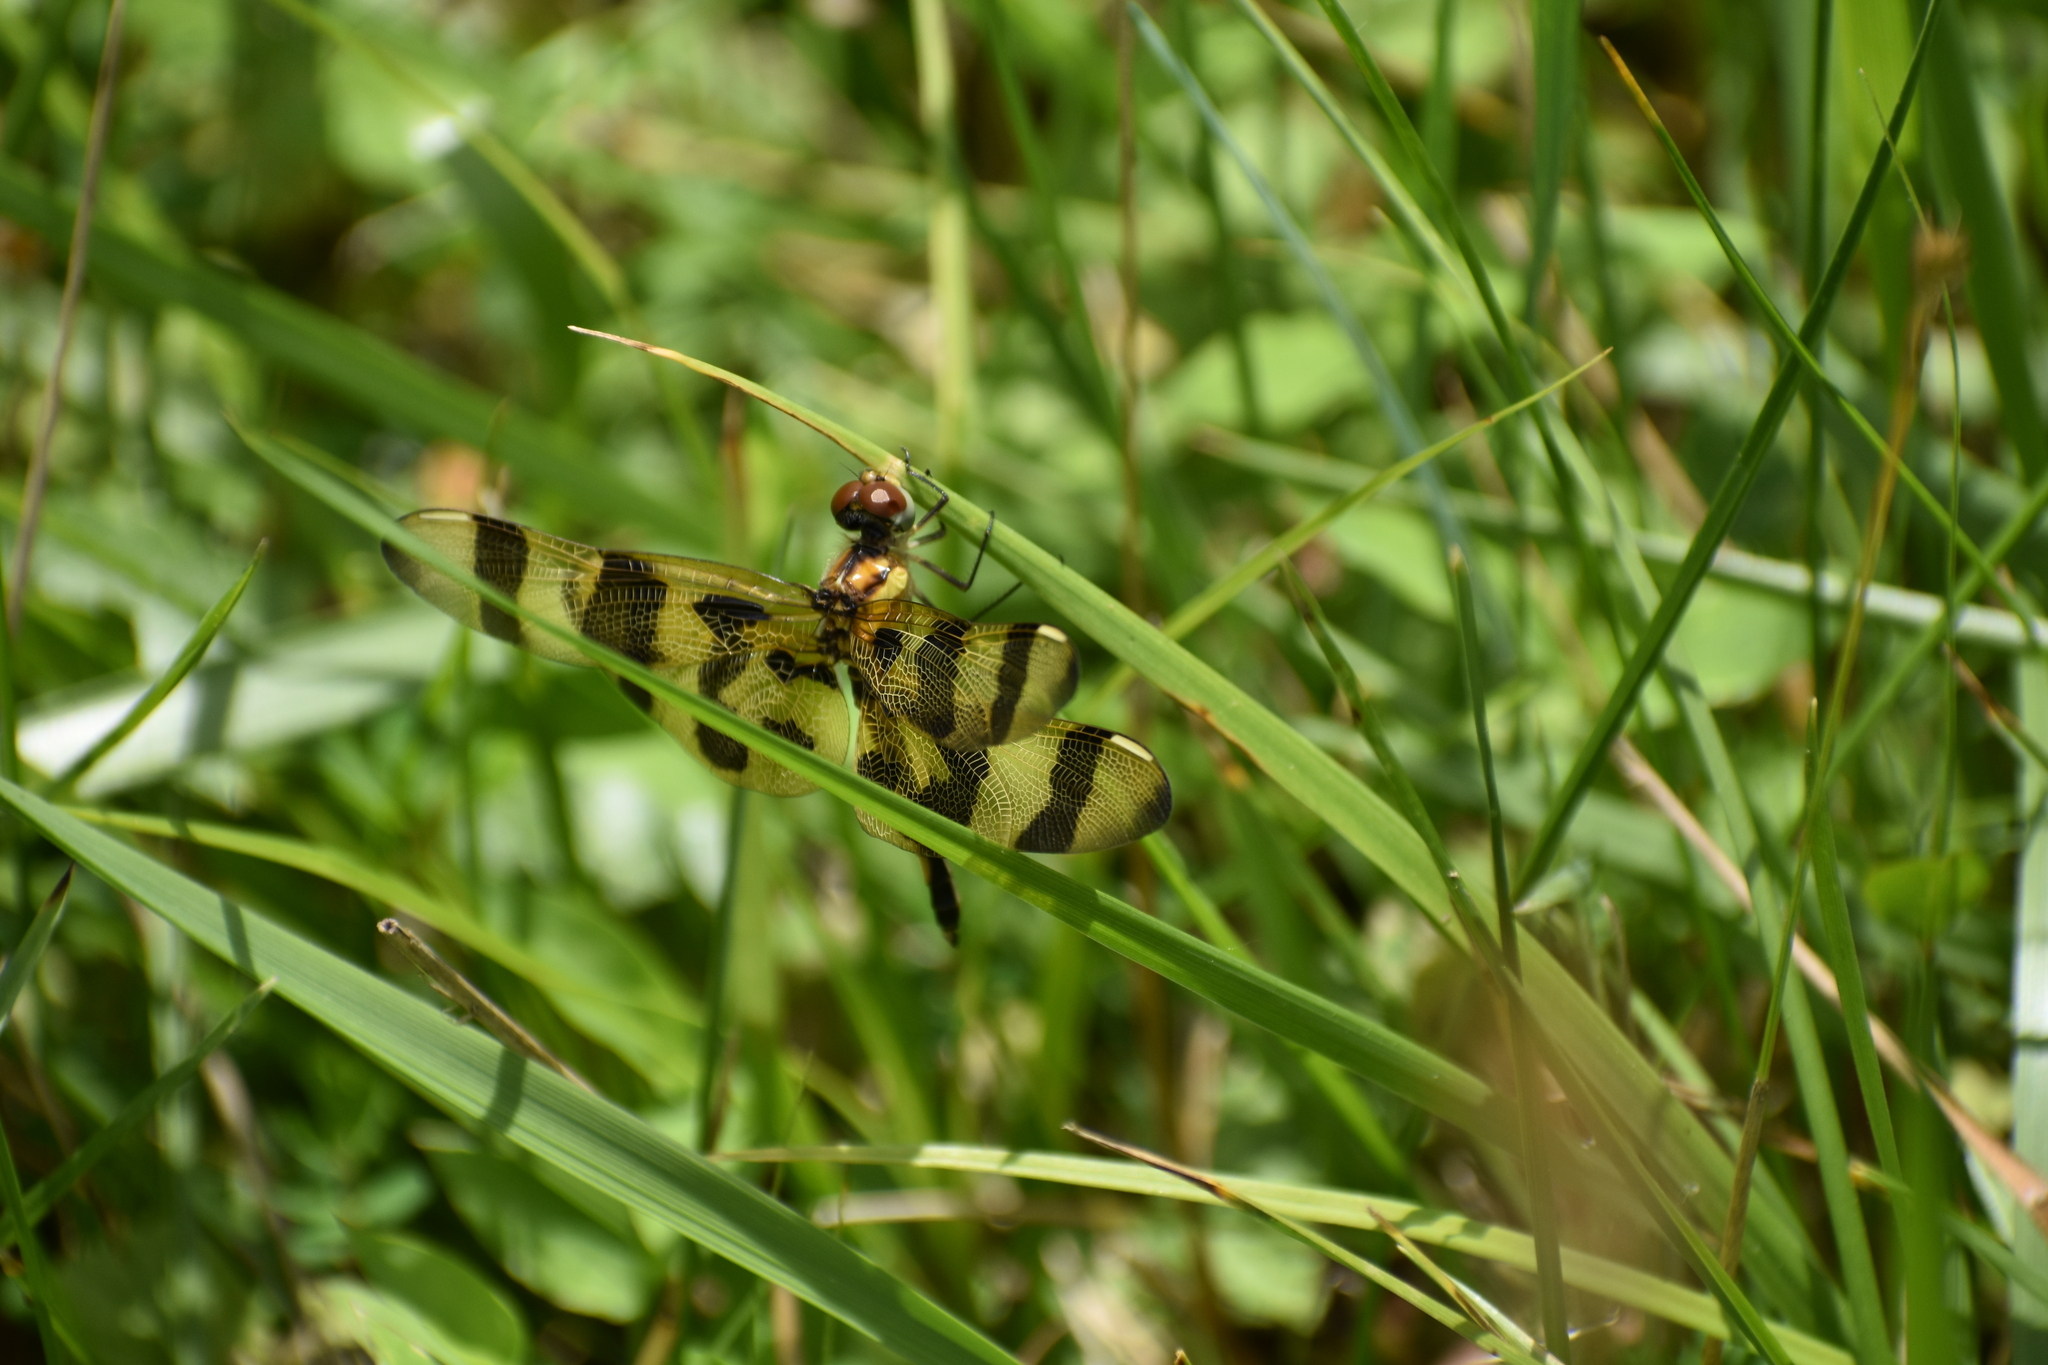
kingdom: Animalia
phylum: Arthropoda
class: Insecta
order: Odonata
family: Libellulidae
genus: Celithemis
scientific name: Celithemis eponina
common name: Halloween pennant
